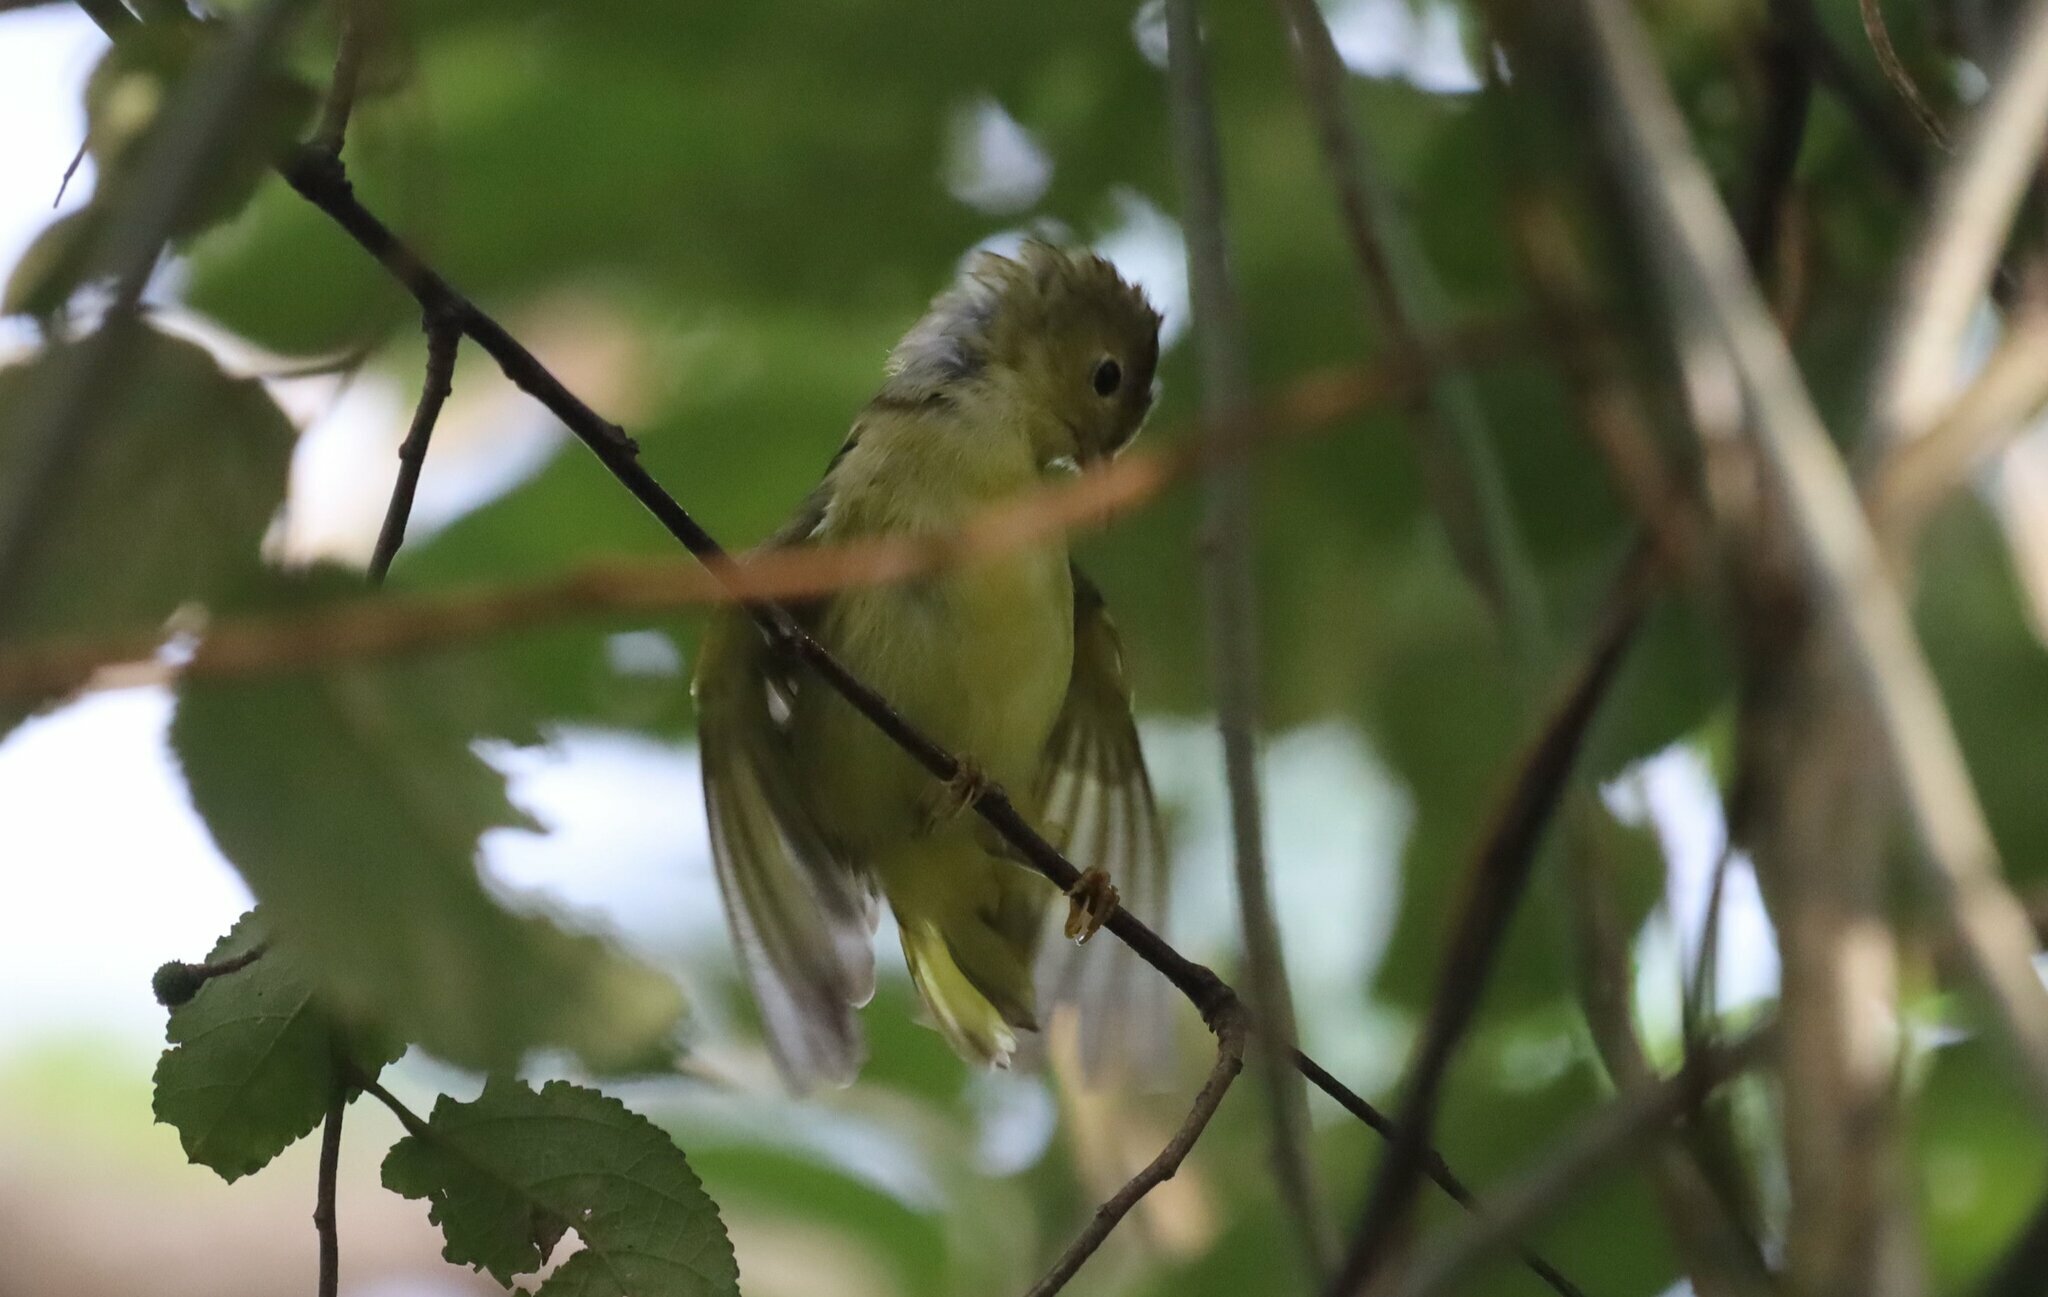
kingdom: Animalia
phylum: Chordata
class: Aves
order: Passeriformes
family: Parulidae
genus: Setophaga
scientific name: Setophaga petechia
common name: Yellow warbler
